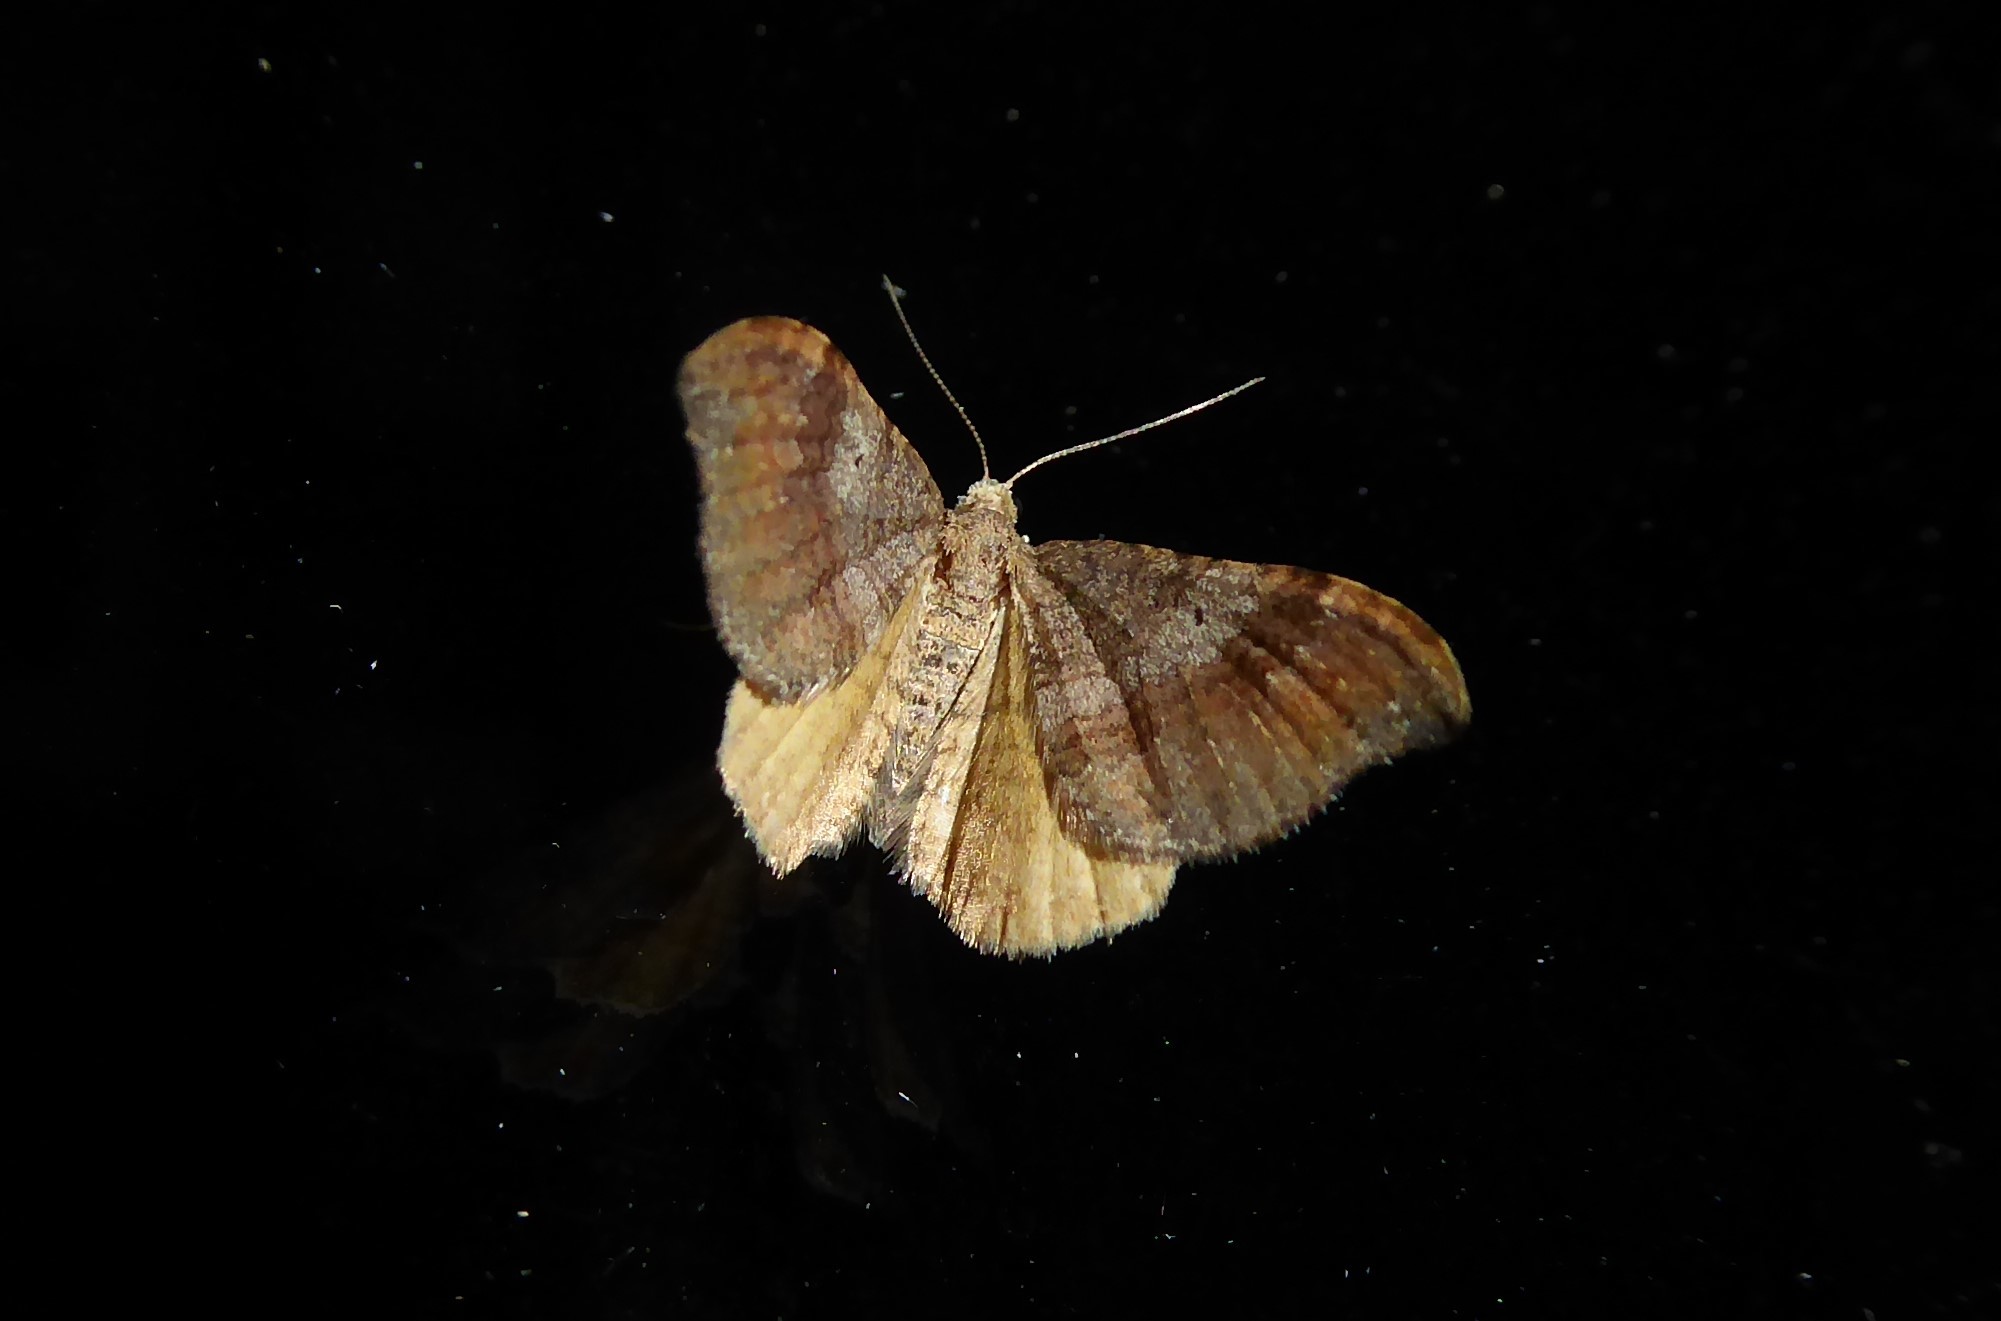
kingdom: Animalia
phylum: Arthropoda
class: Insecta
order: Lepidoptera
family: Geometridae
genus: Homodotis
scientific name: Homodotis megaspilata
